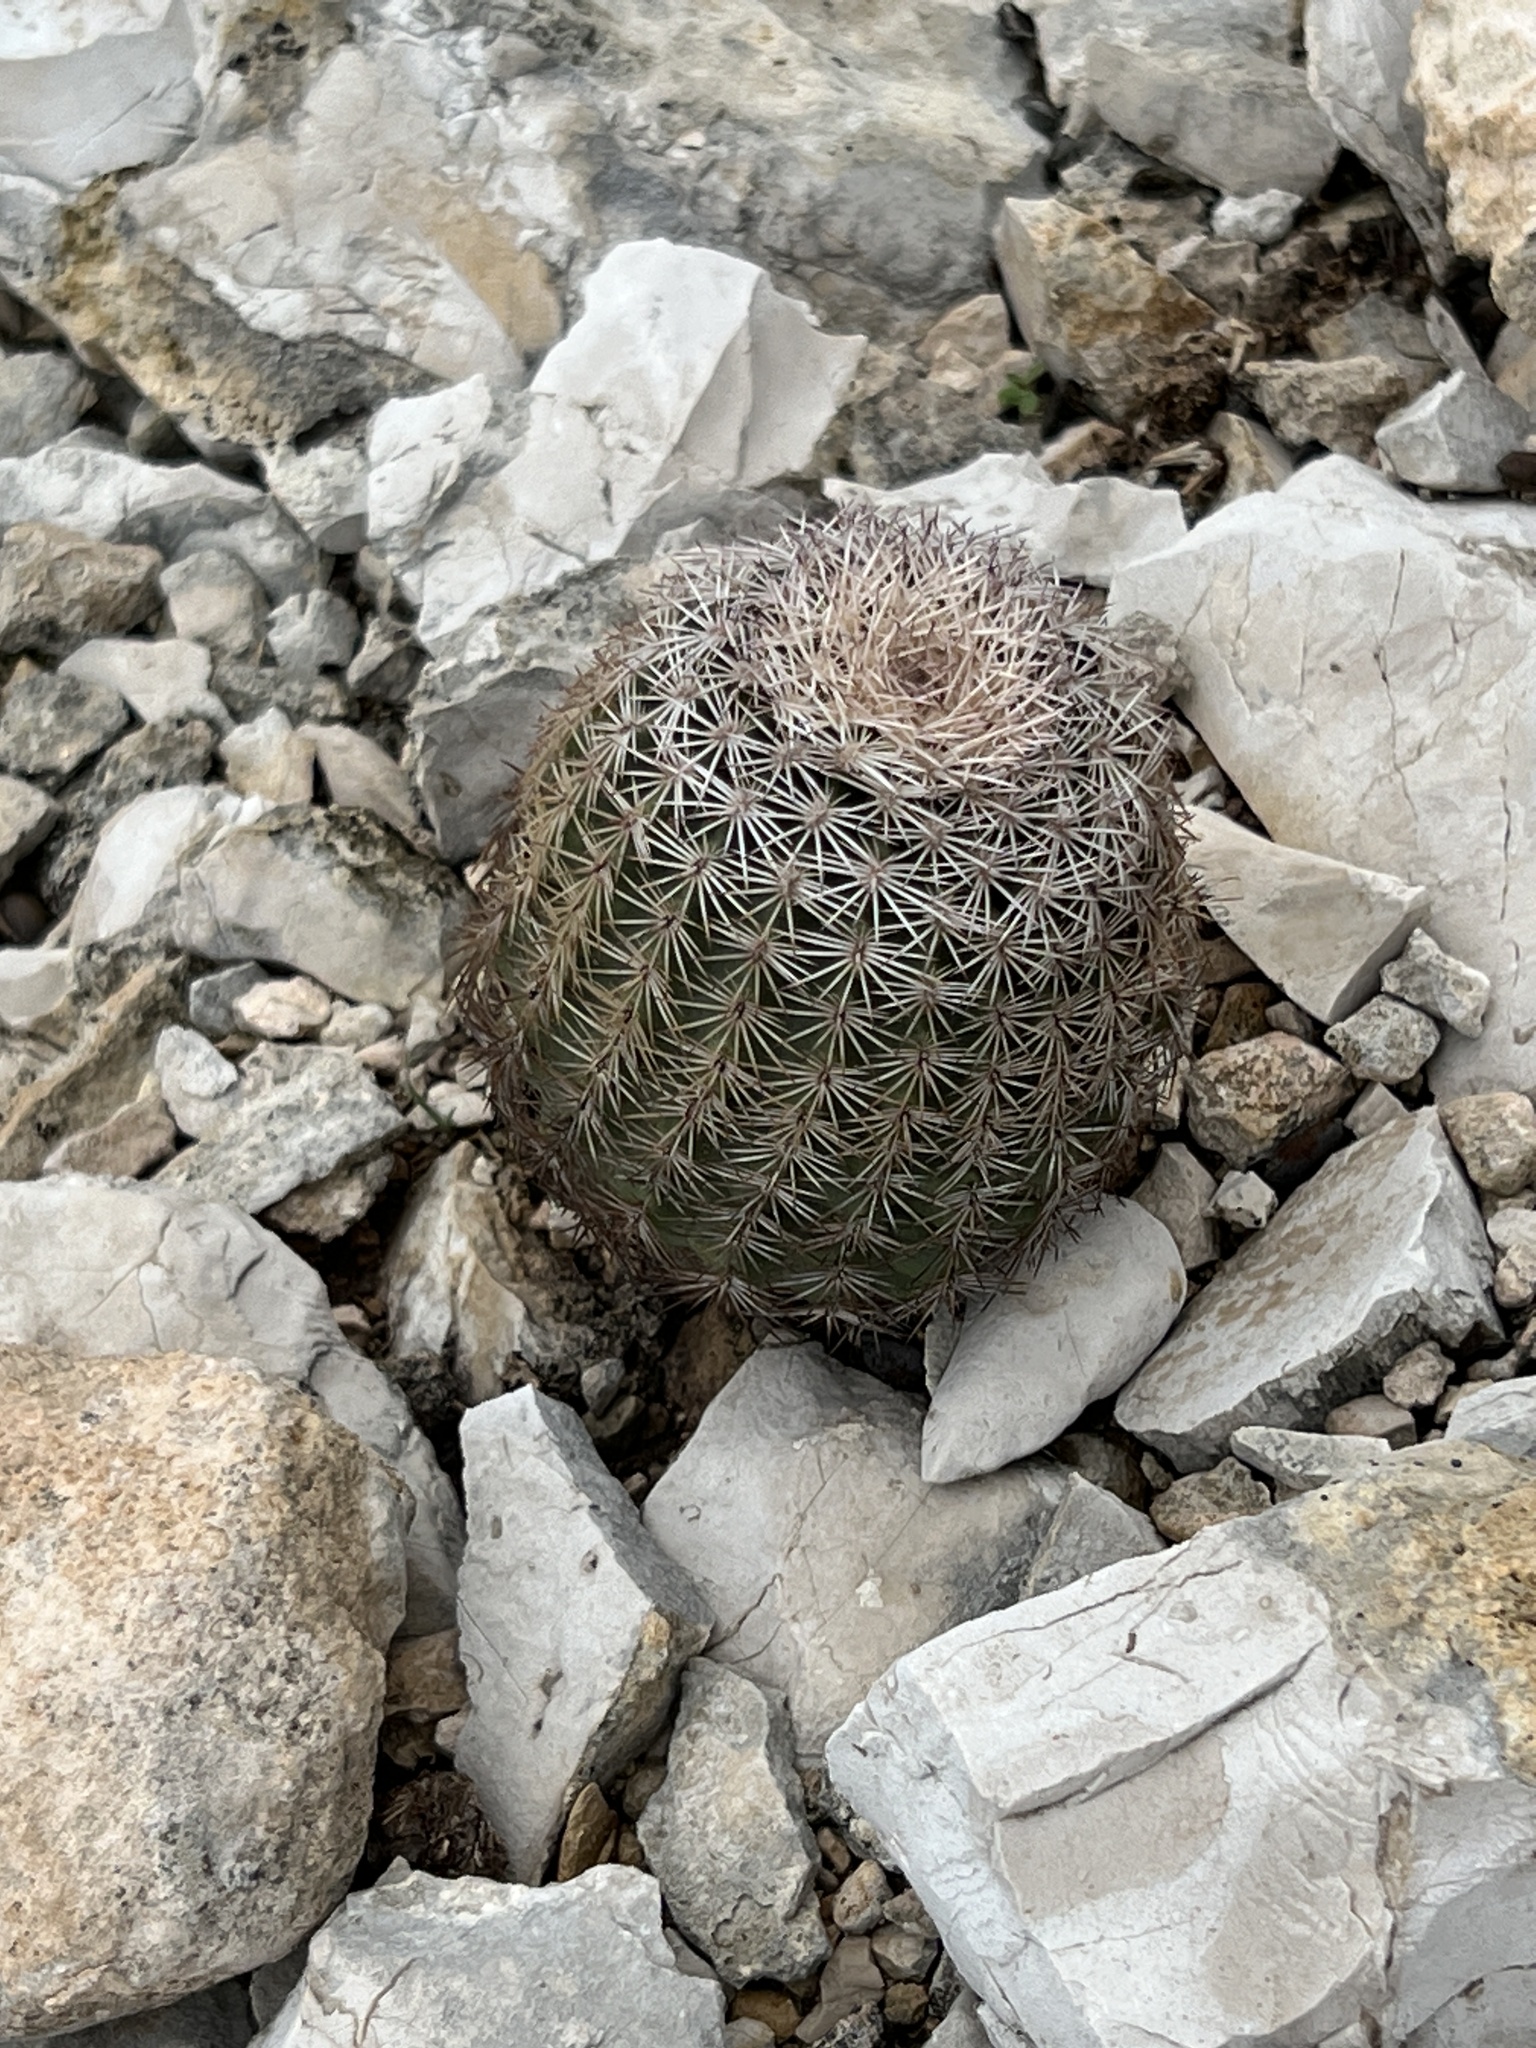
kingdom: Plantae
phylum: Tracheophyta
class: Magnoliopsida
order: Caryophyllales
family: Cactaceae
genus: Echinocereus
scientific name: Echinocereus pectinatus
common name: Rainbow cactus
